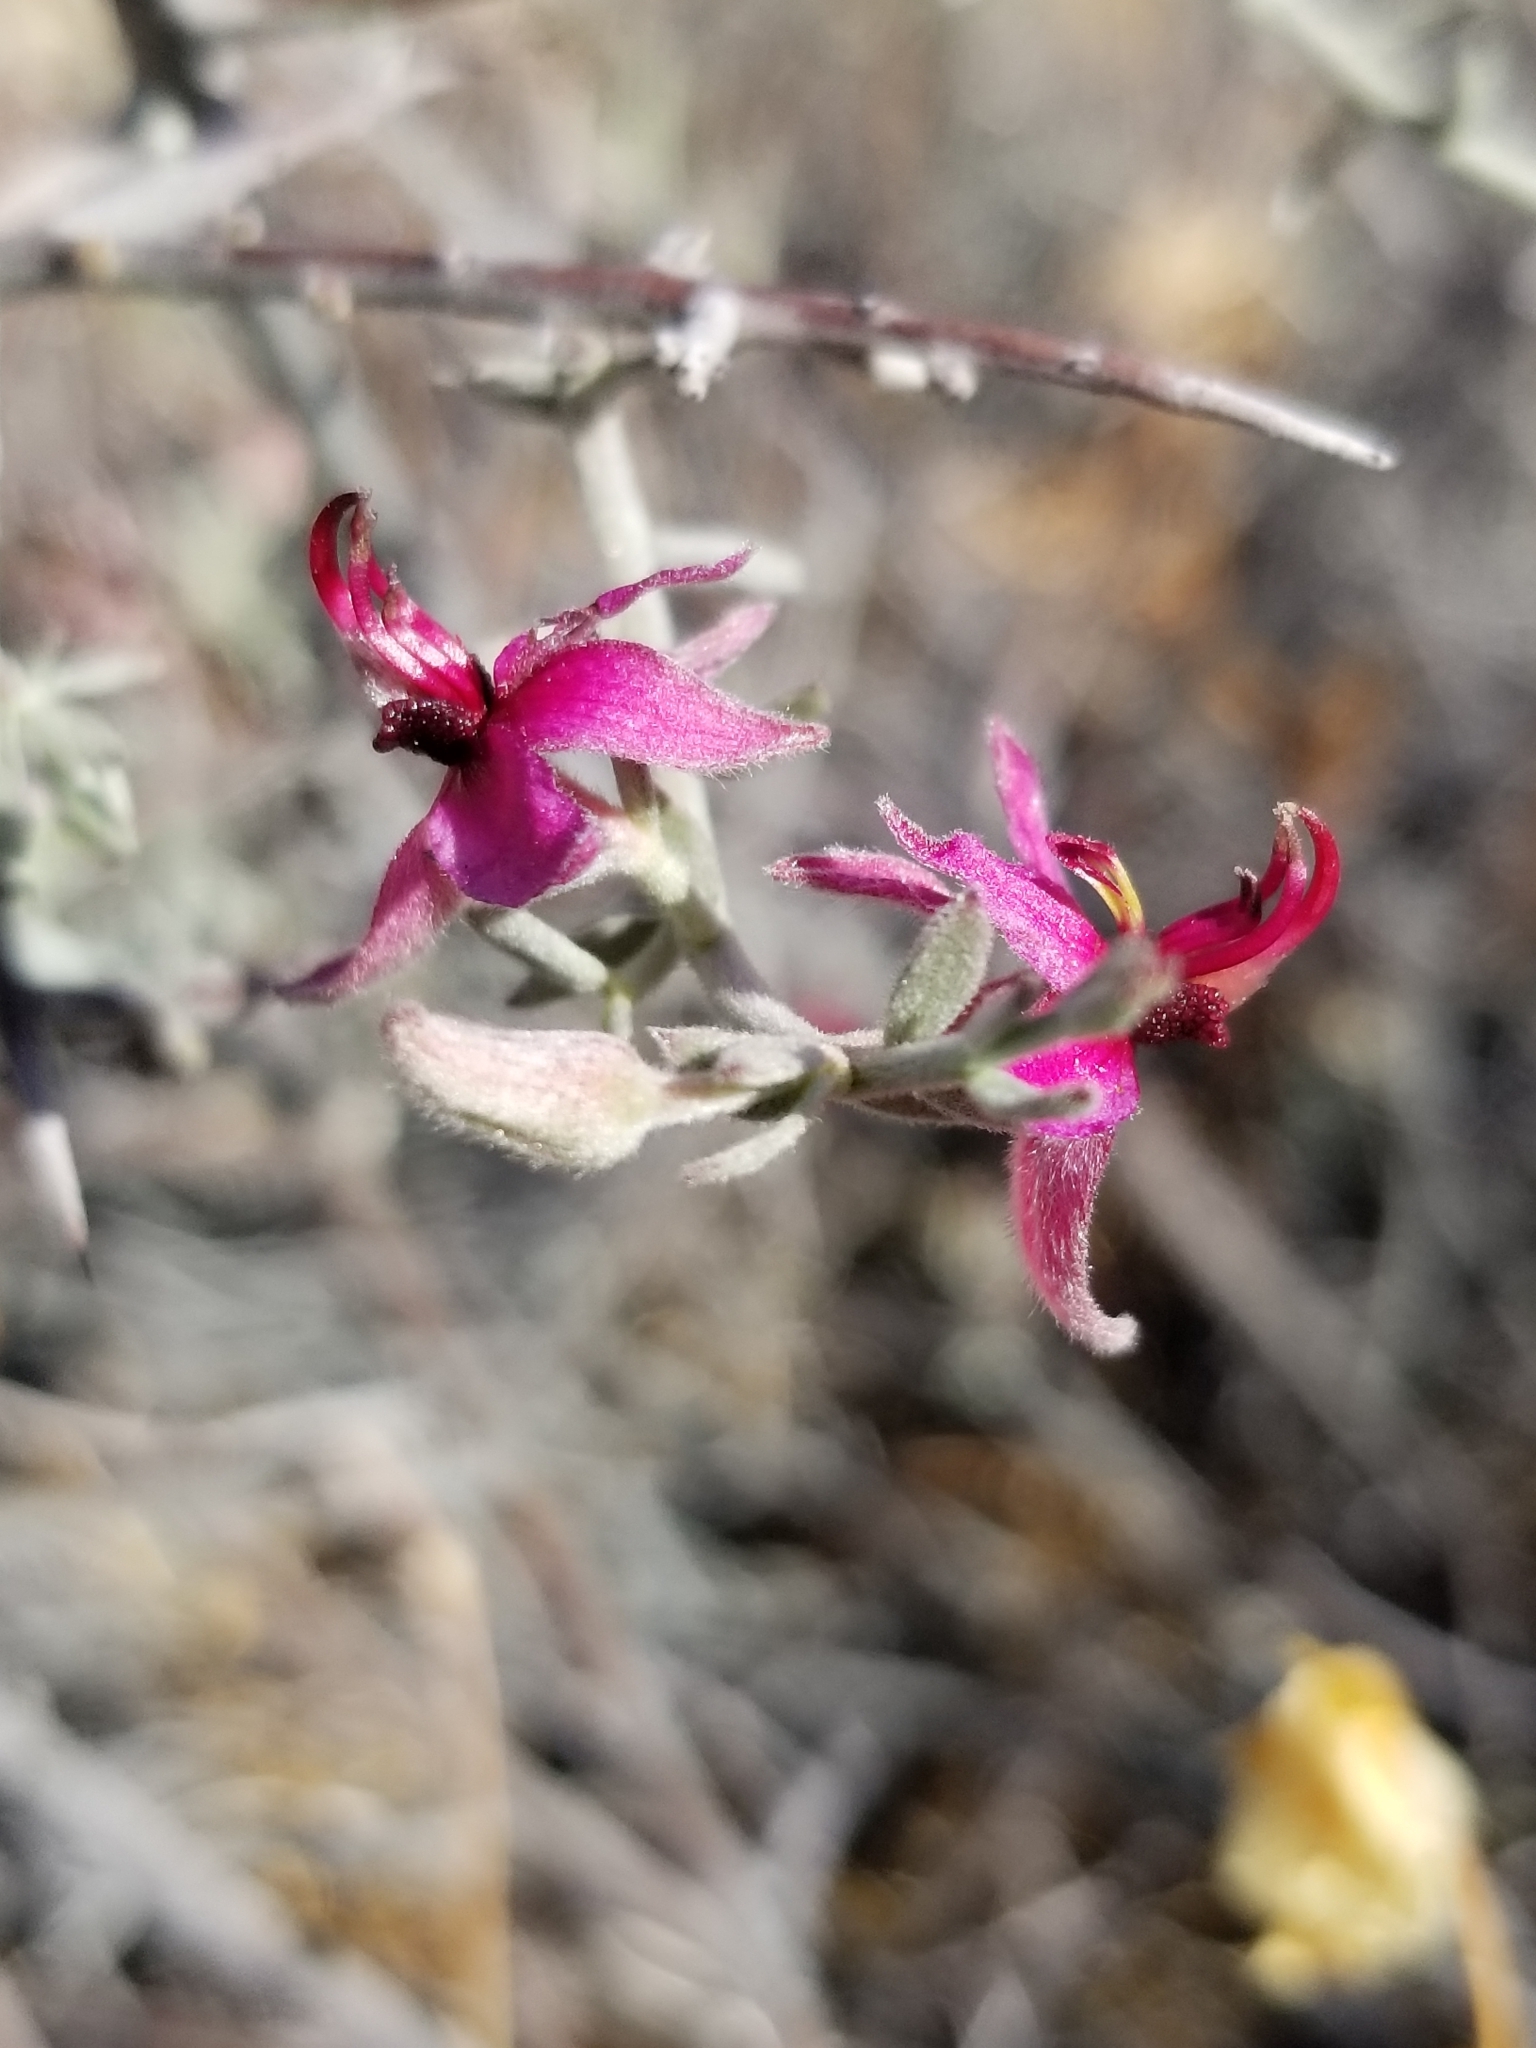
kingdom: Plantae
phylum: Tracheophyta
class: Magnoliopsida
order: Zygophyllales
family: Krameriaceae
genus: Krameria
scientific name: Krameria bicolor
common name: White ratany
